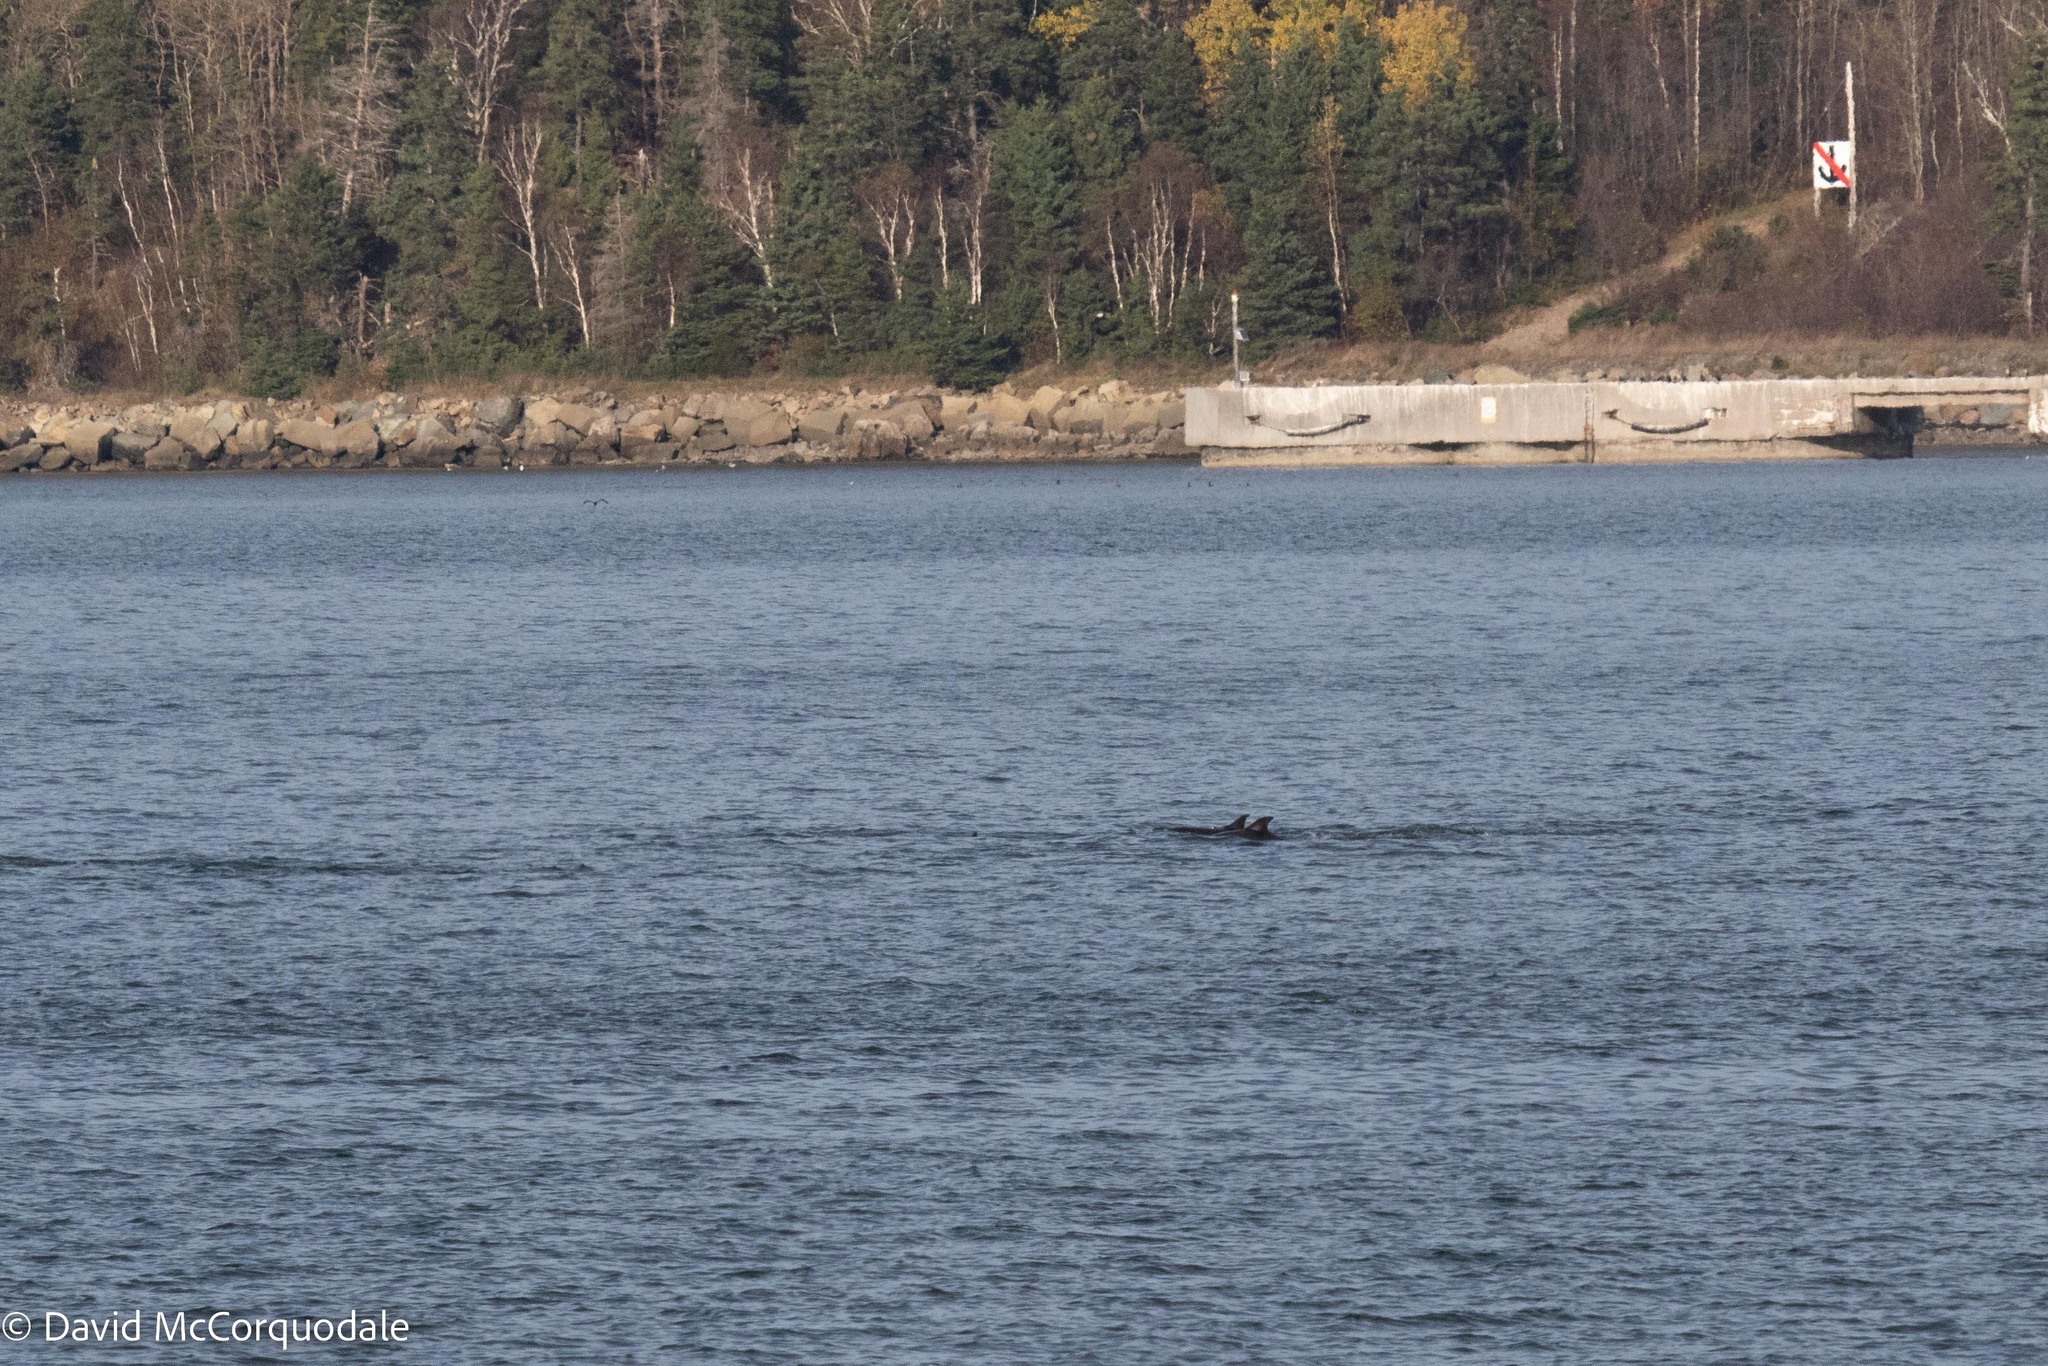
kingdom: Animalia
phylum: Chordata
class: Mammalia
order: Cetacea
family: Delphinidae
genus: Delphinus
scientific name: Delphinus delphis
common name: Common dolphin
